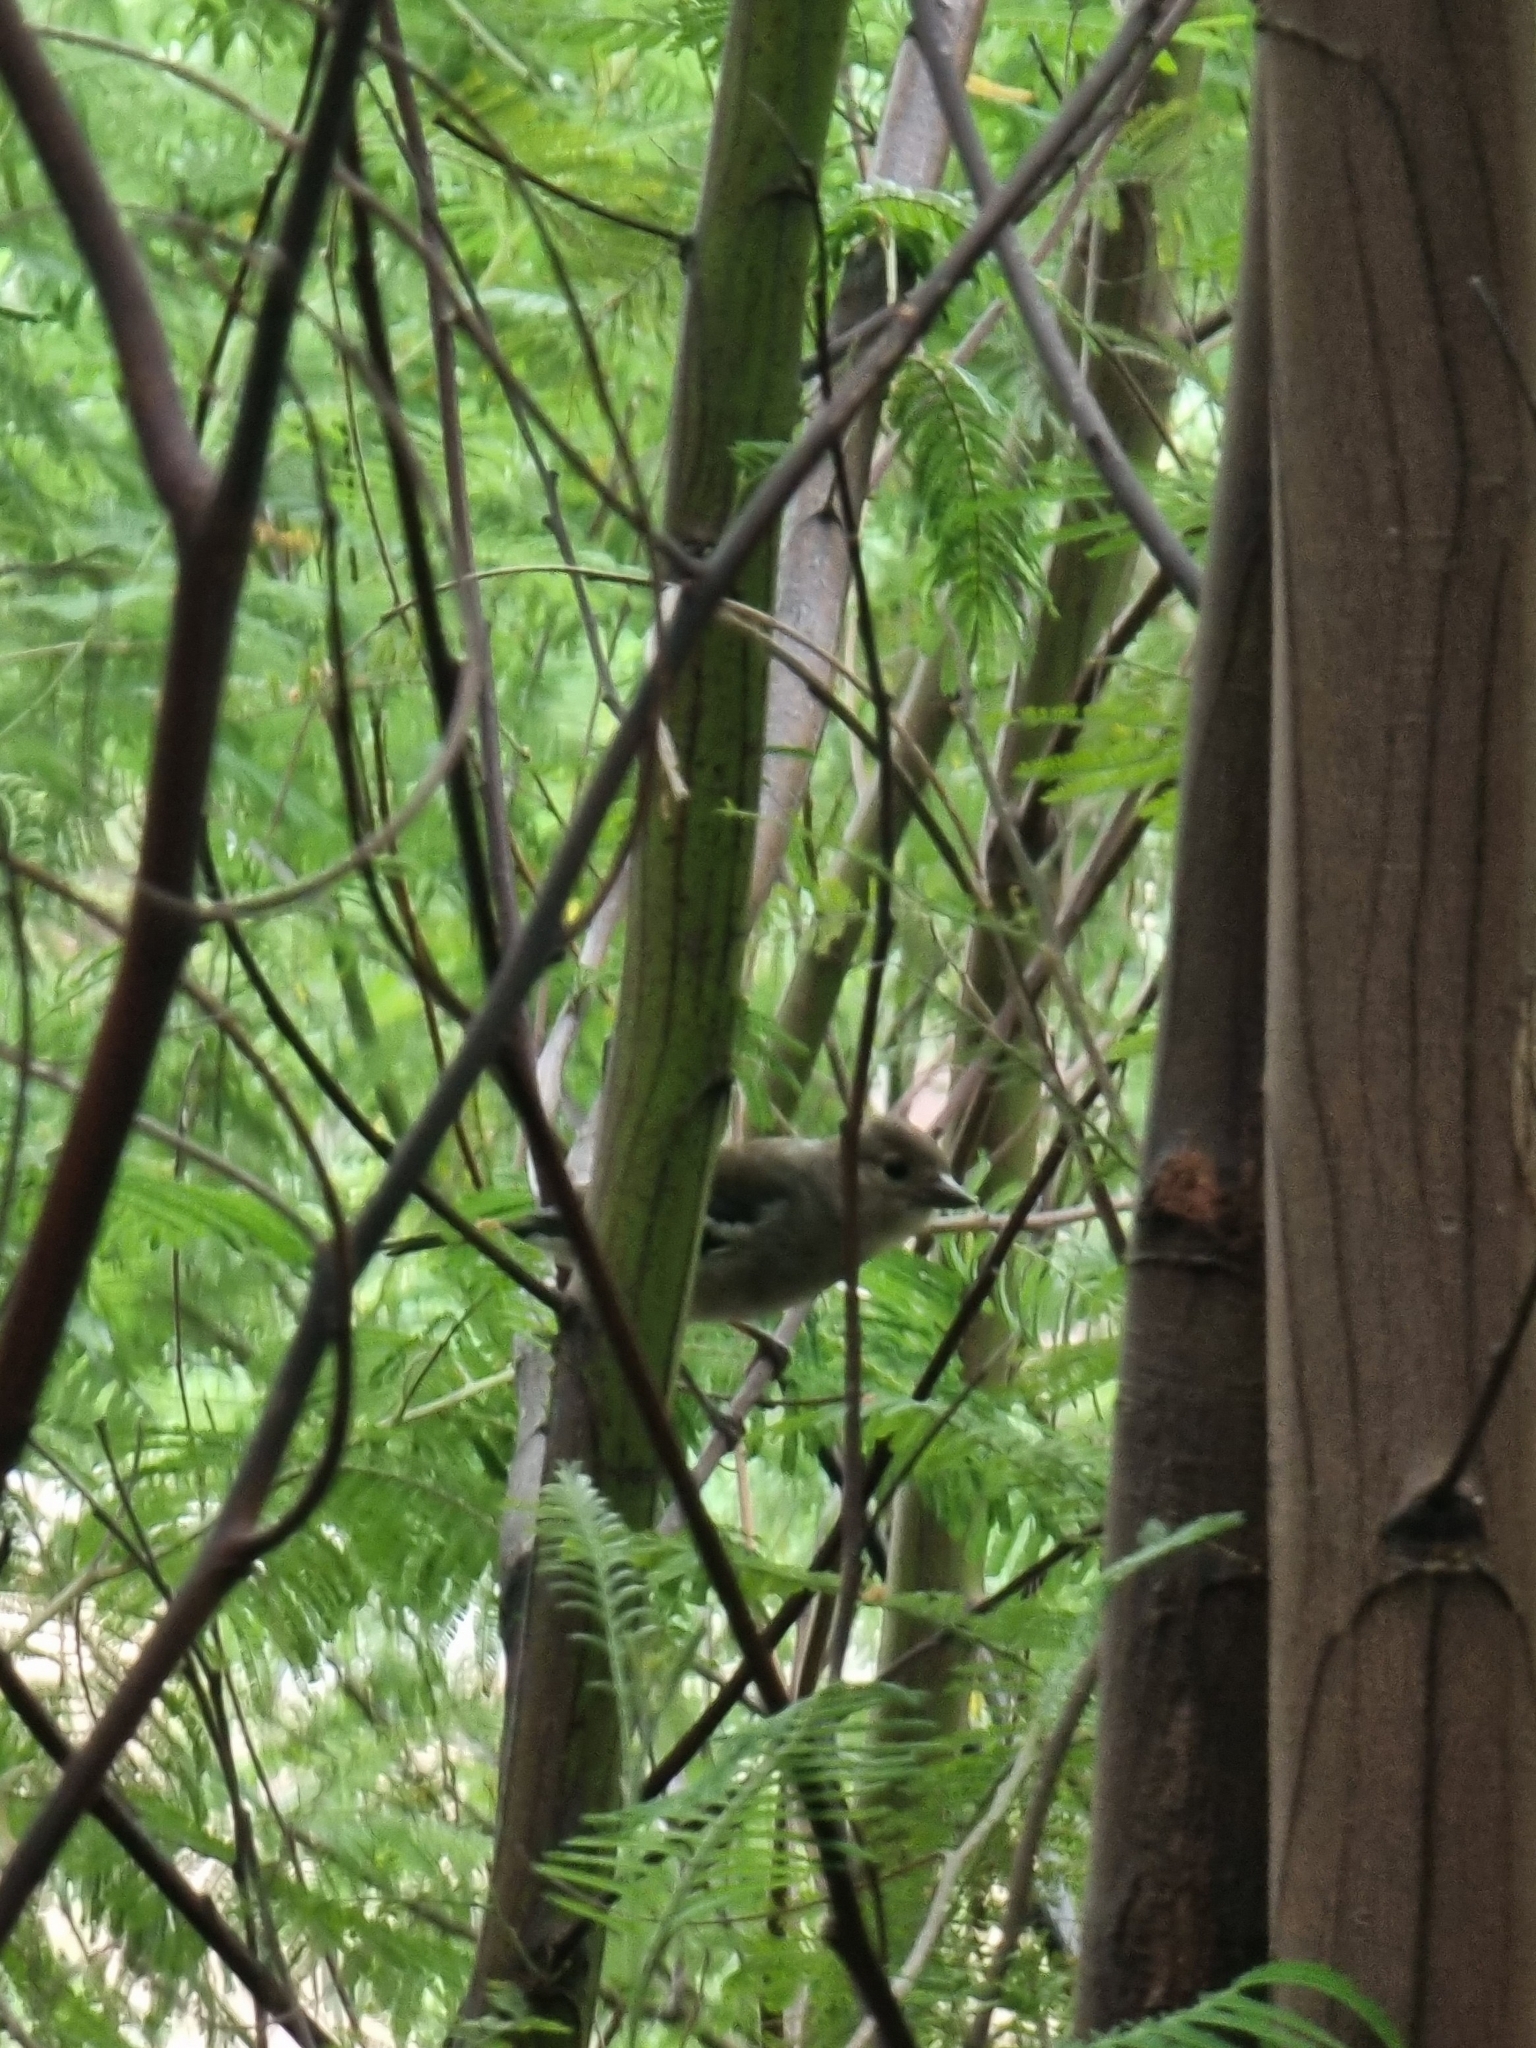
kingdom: Animalia
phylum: Chordata
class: Aves
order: Passeriformes
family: Fringillidae
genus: Fringilla
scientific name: Fringilla maderensis
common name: Madeira chaffinch
